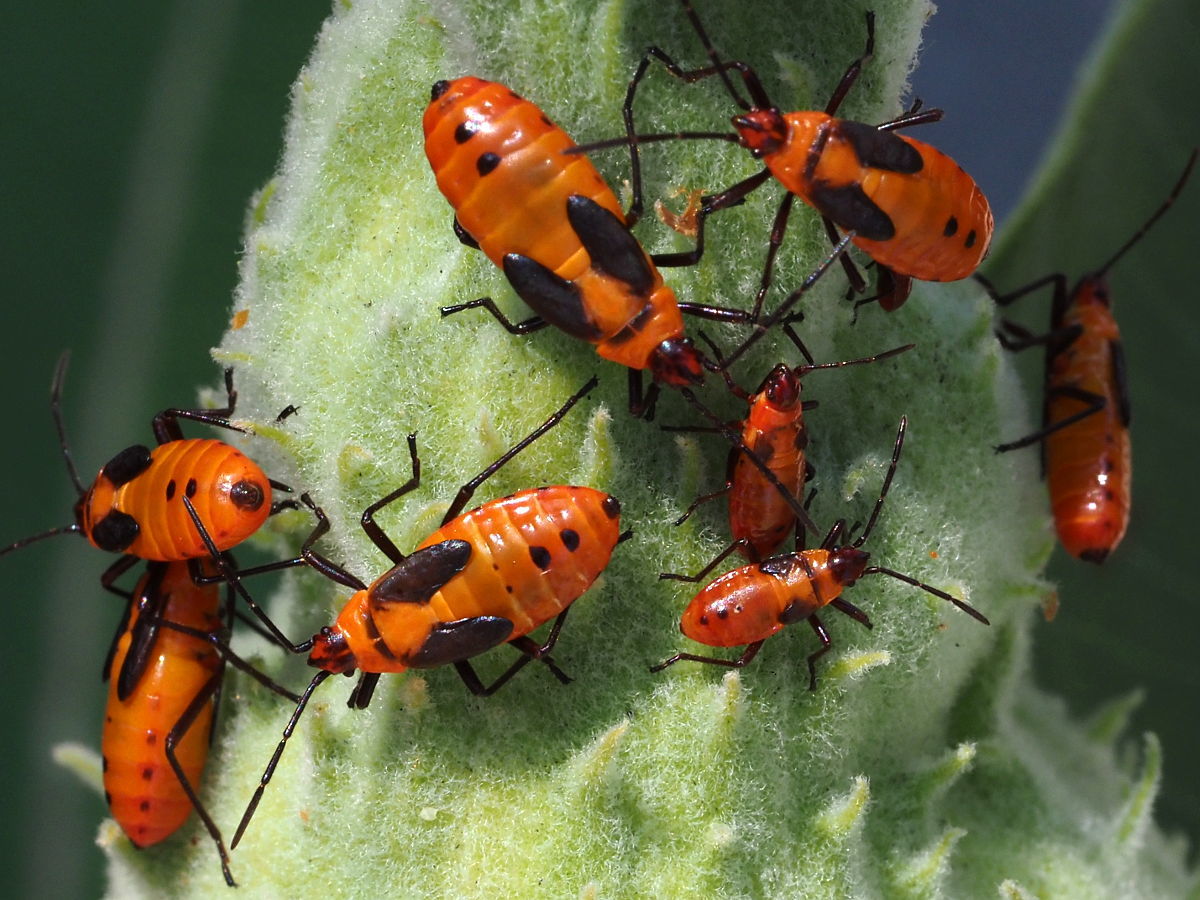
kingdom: Animalia
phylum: Arthropoda
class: Insecta
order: Hemiptera
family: Lygaeidae
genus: Oncopeltus
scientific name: Oncopeltus fasciatus
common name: Large milkweed bug
